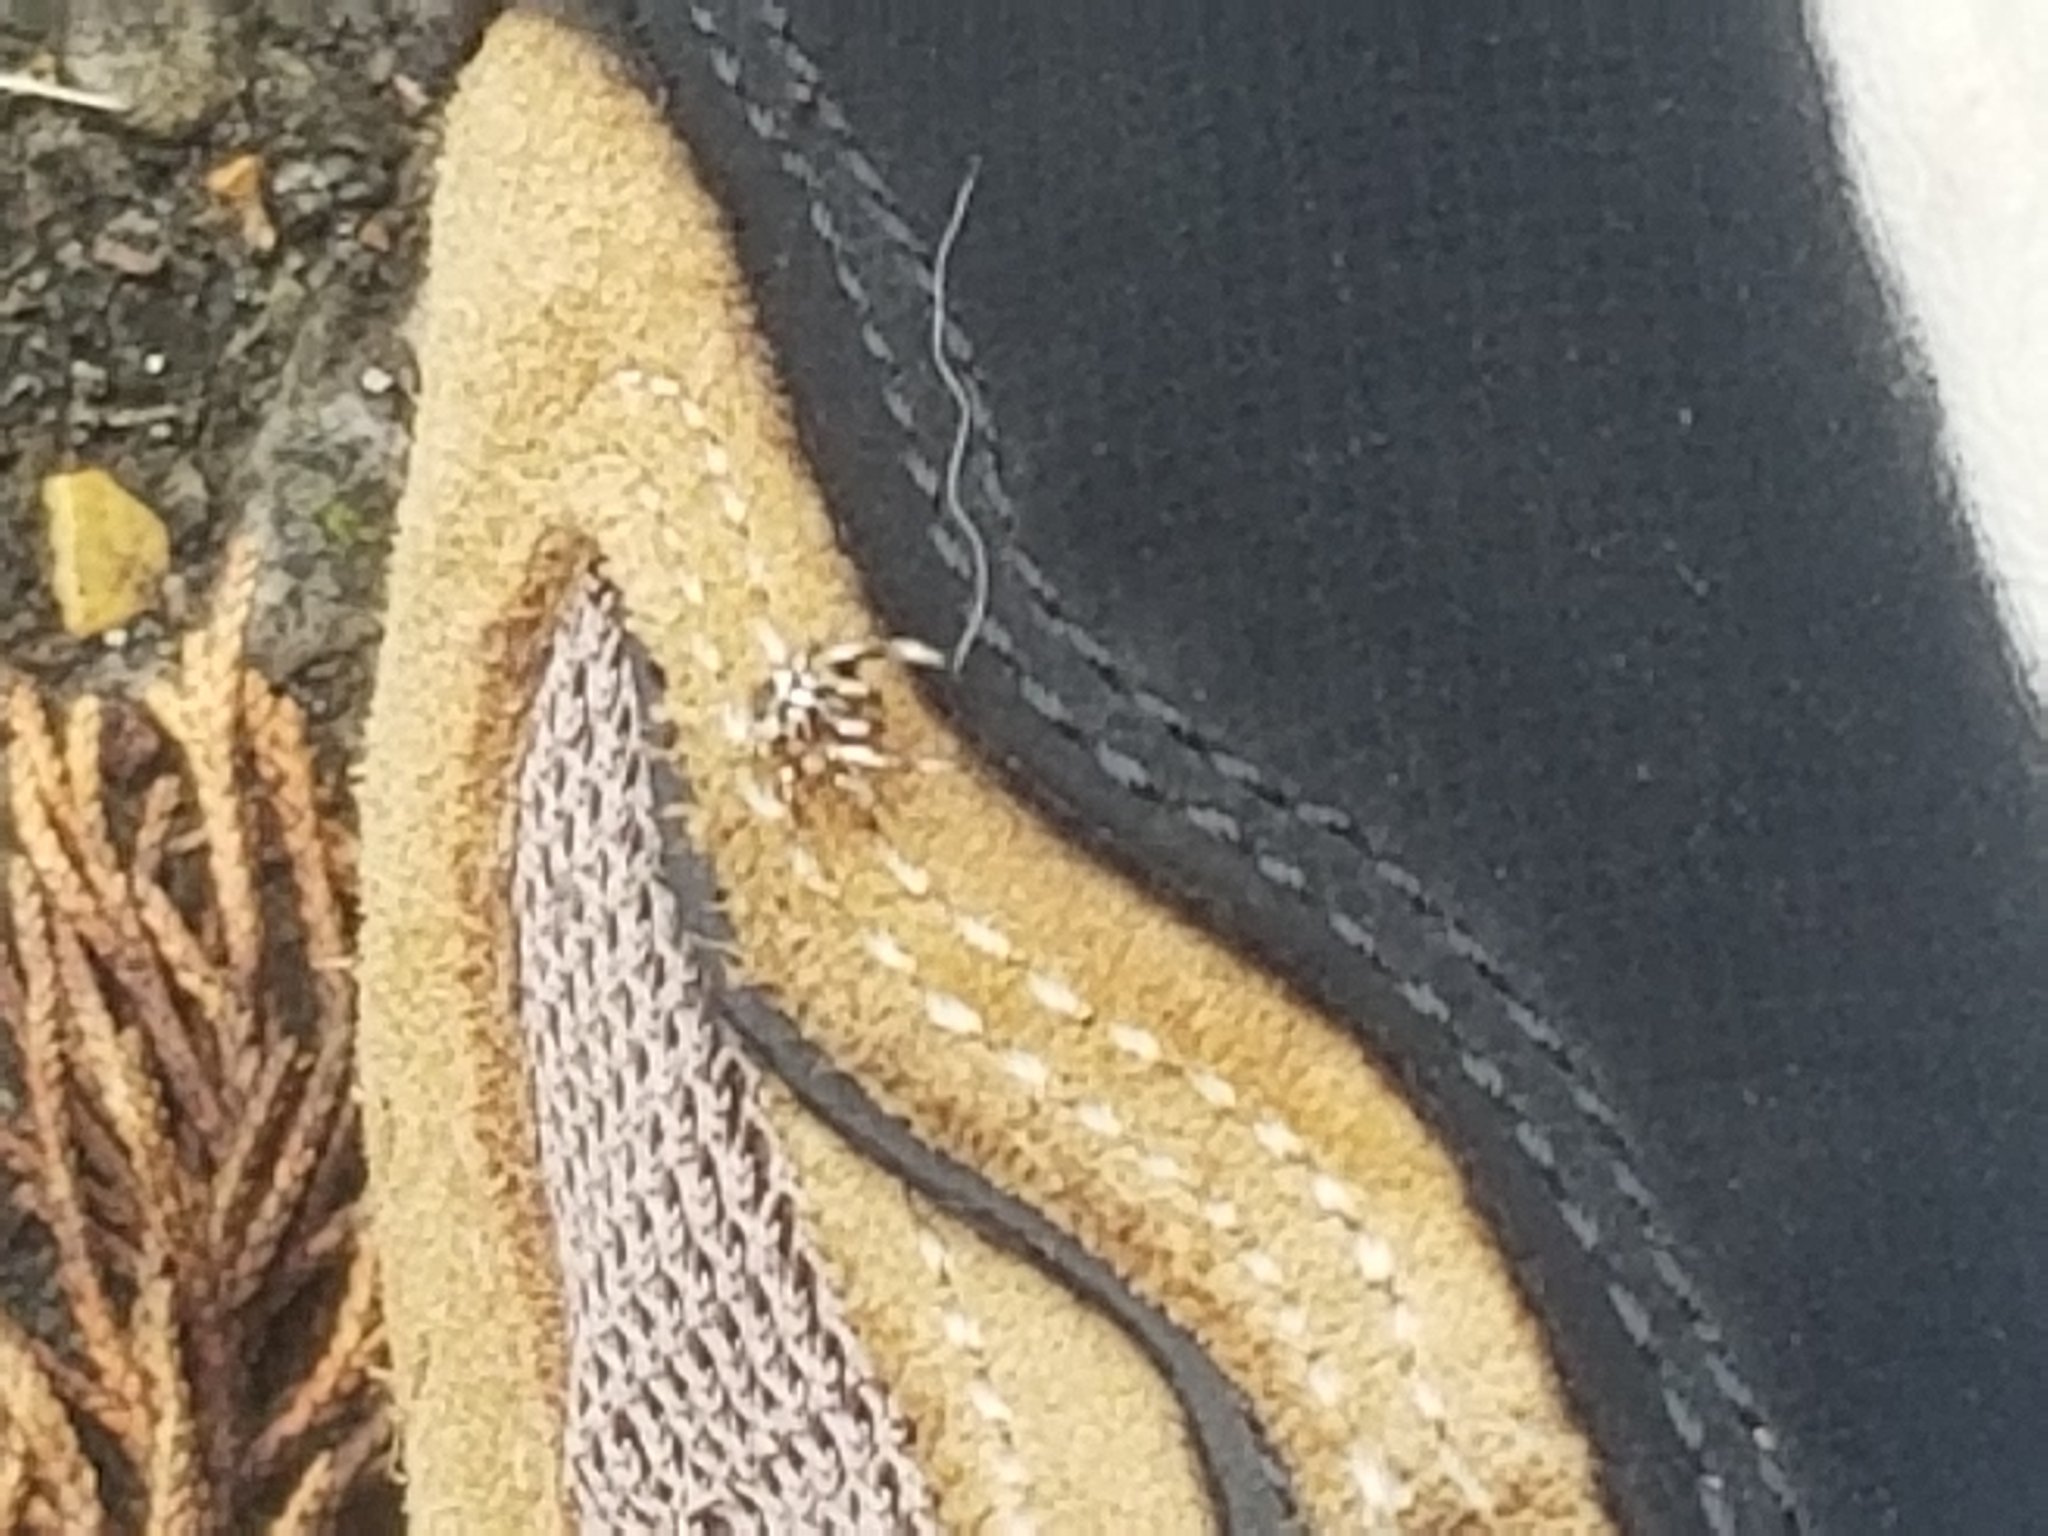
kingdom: Animalia
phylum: Arthropoda
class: Arachnida
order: Araneae
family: Salticidae
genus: Pelegrina
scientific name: Pelegrina exigua
